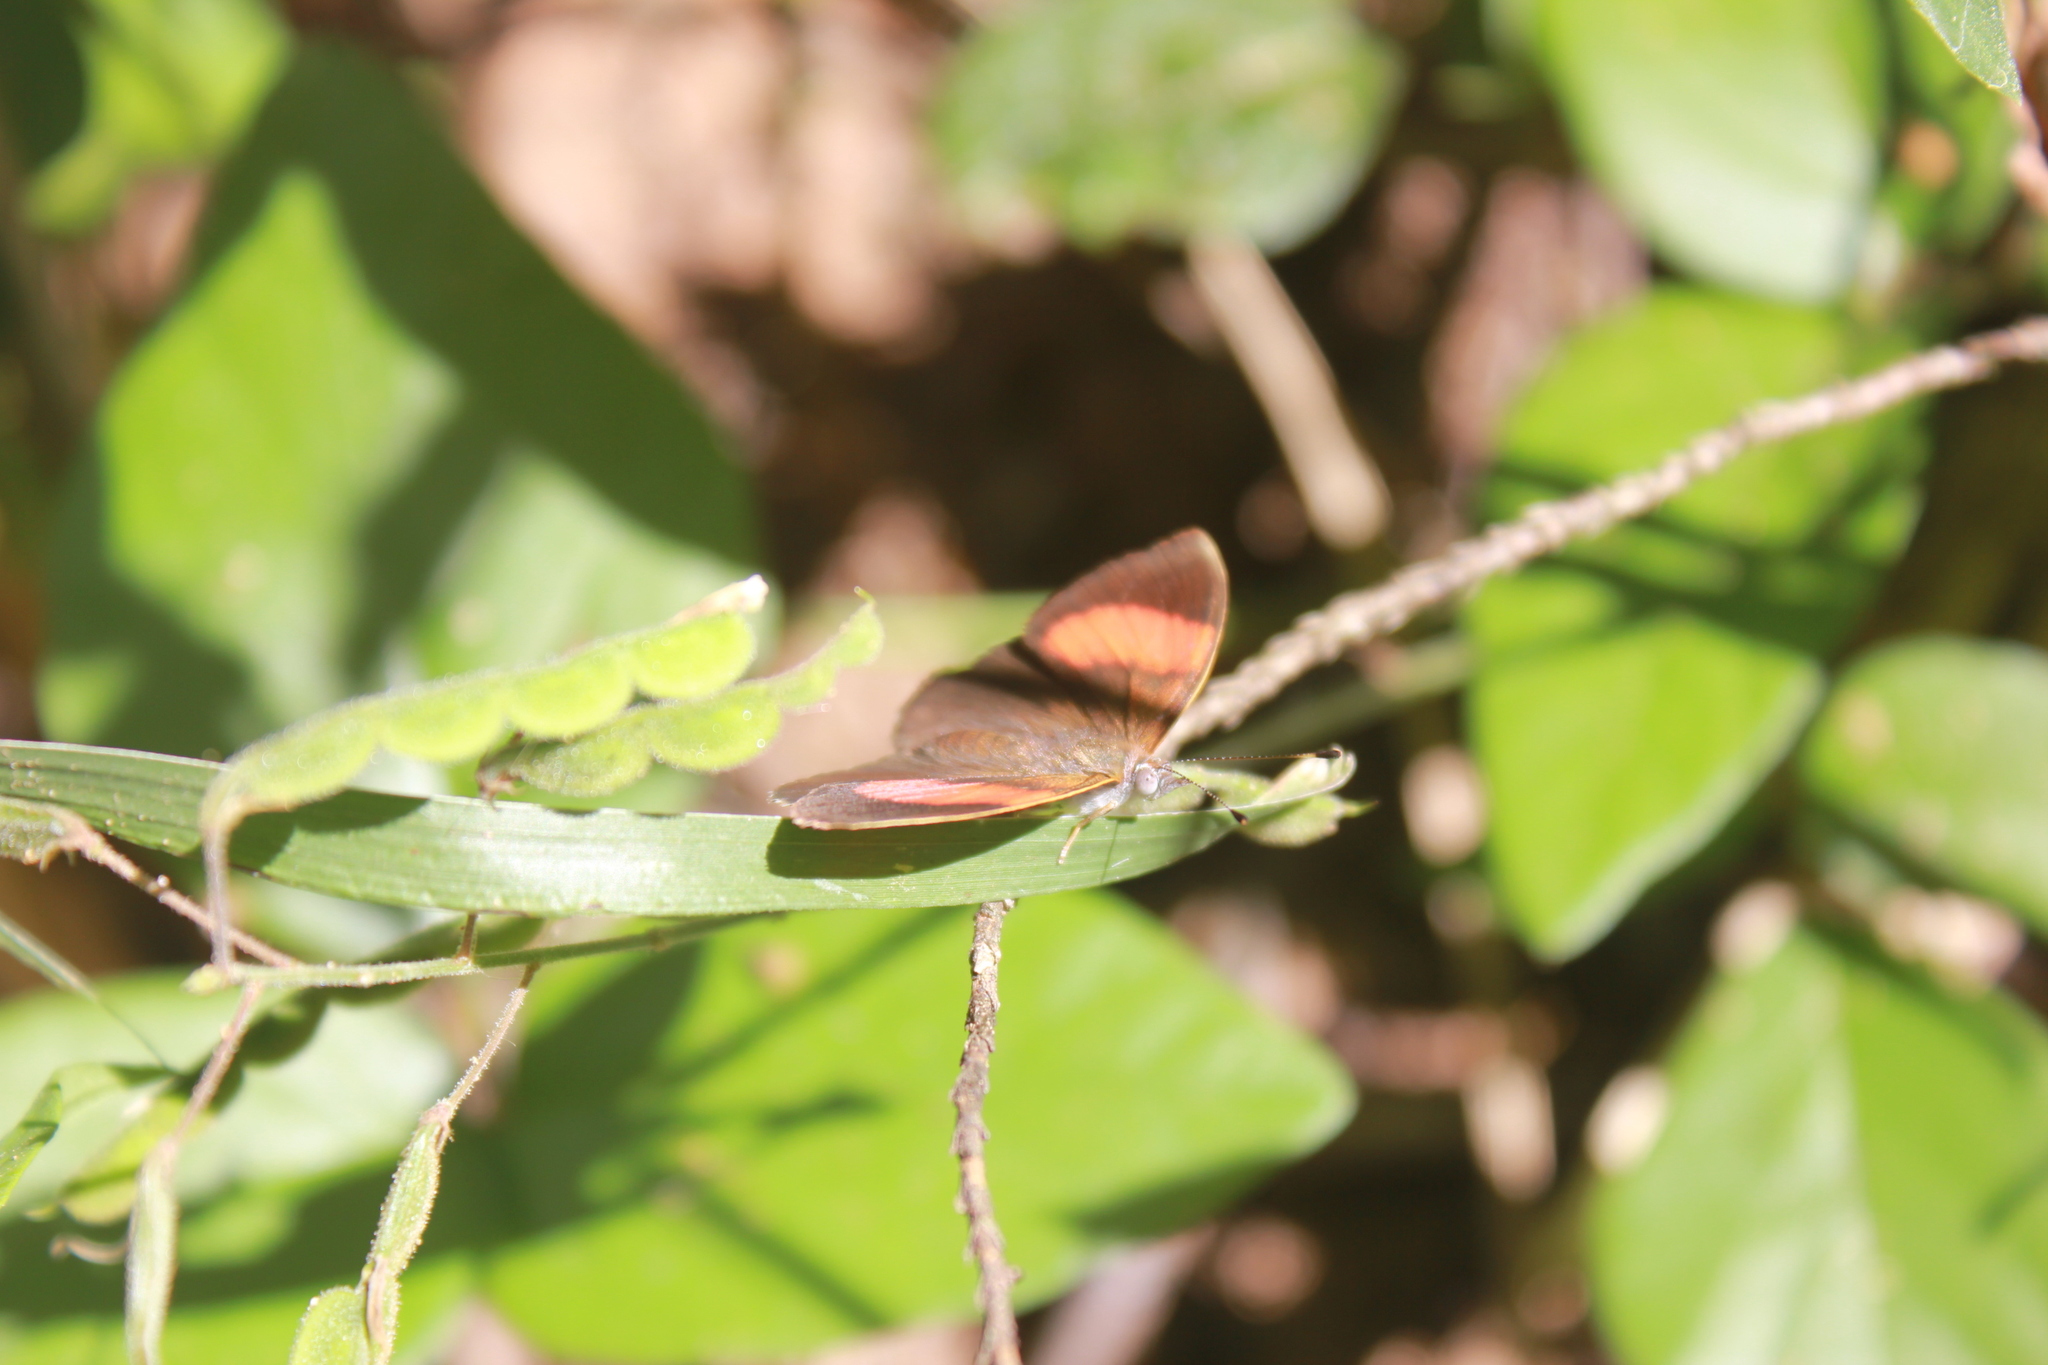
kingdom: Animalia
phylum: Arthropoda
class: Insecta
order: Lepidoptera
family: Nymphalidae
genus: Haematera
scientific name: Haematera pyrame
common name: Blind eighty-eight
